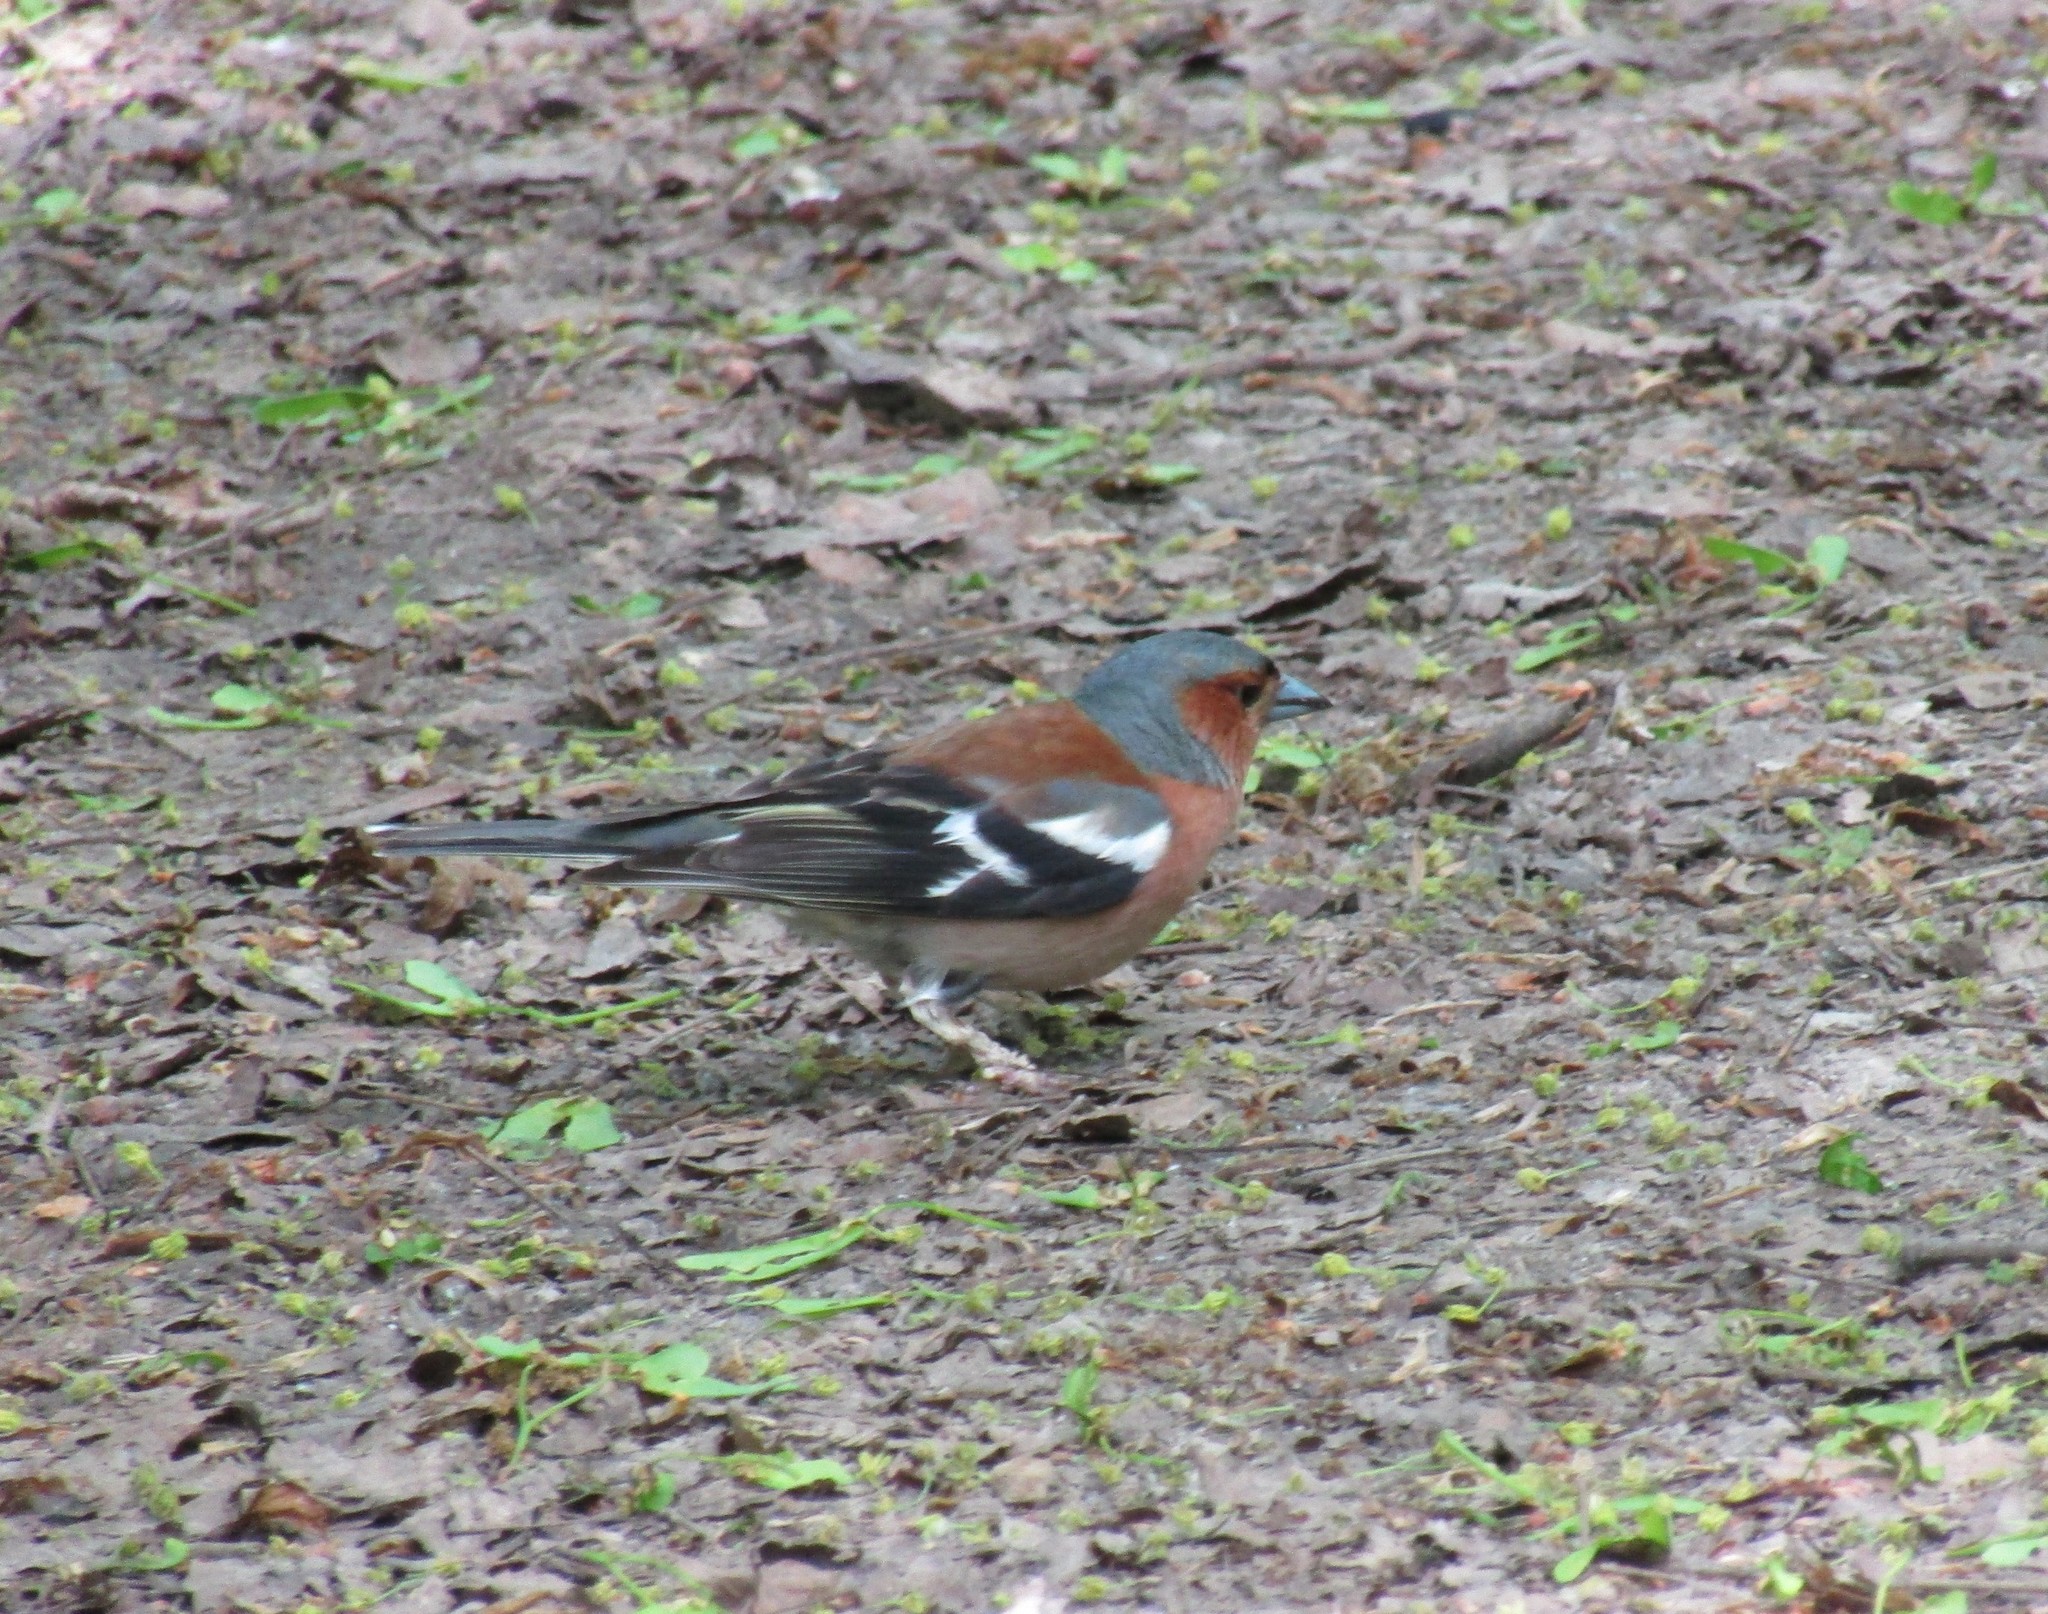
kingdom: Animalia
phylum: Chordata
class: Aves
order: Passeriformes
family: Fringillidae
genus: Fringilla
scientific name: Fringilla coelebs
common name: Common chaffinch
